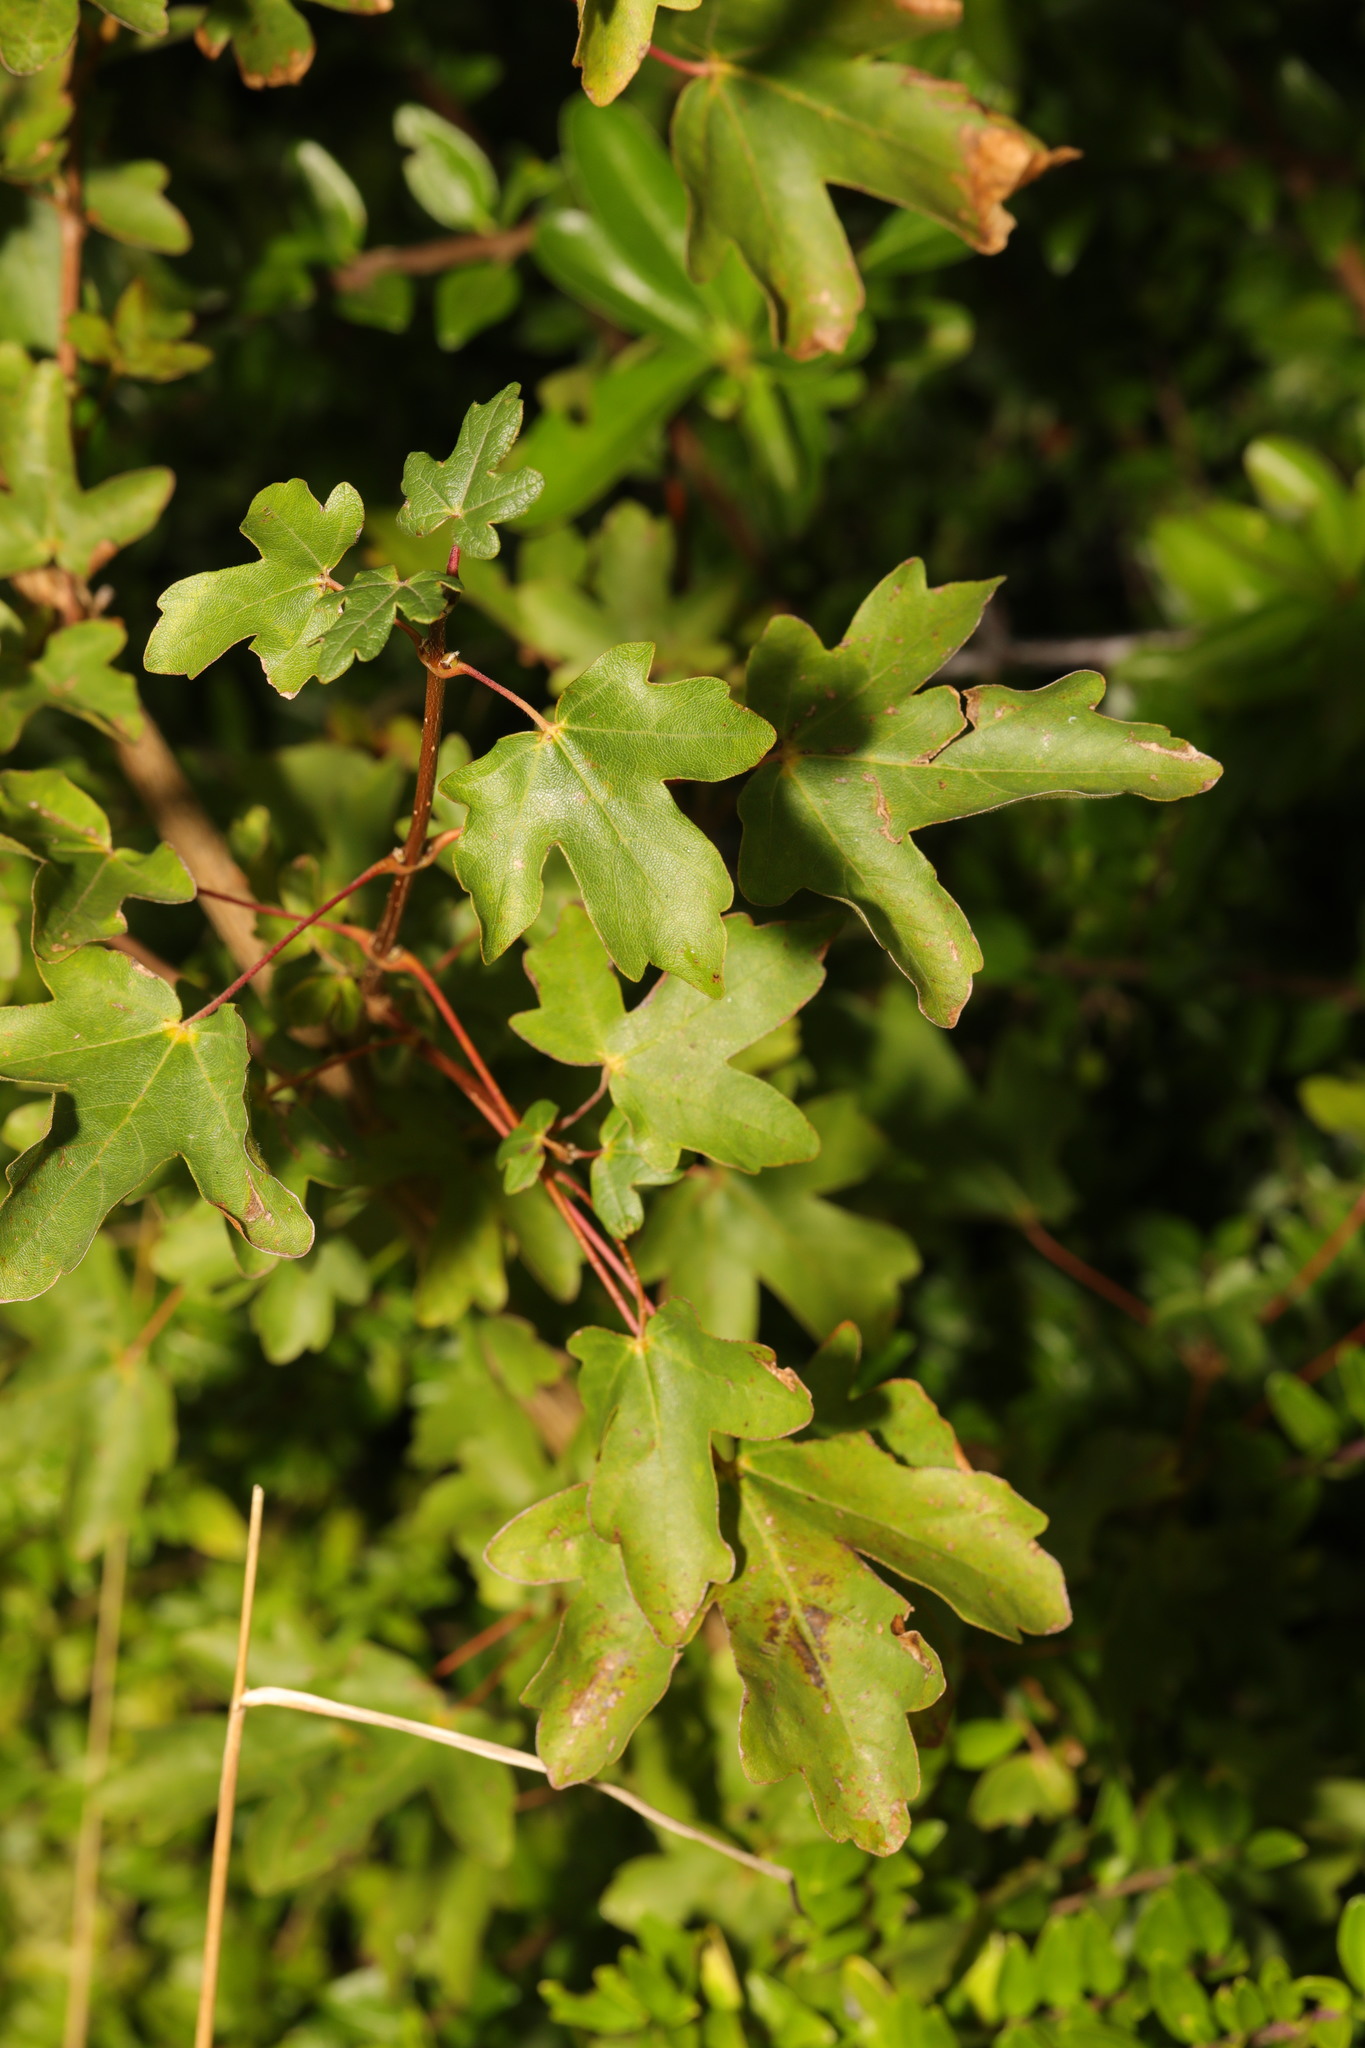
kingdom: Plantae
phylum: Tracheophyta
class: Magnoliopsida
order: Sapindales
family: Sapindaceae
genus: Acer
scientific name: Acer campestre
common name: Field maple
